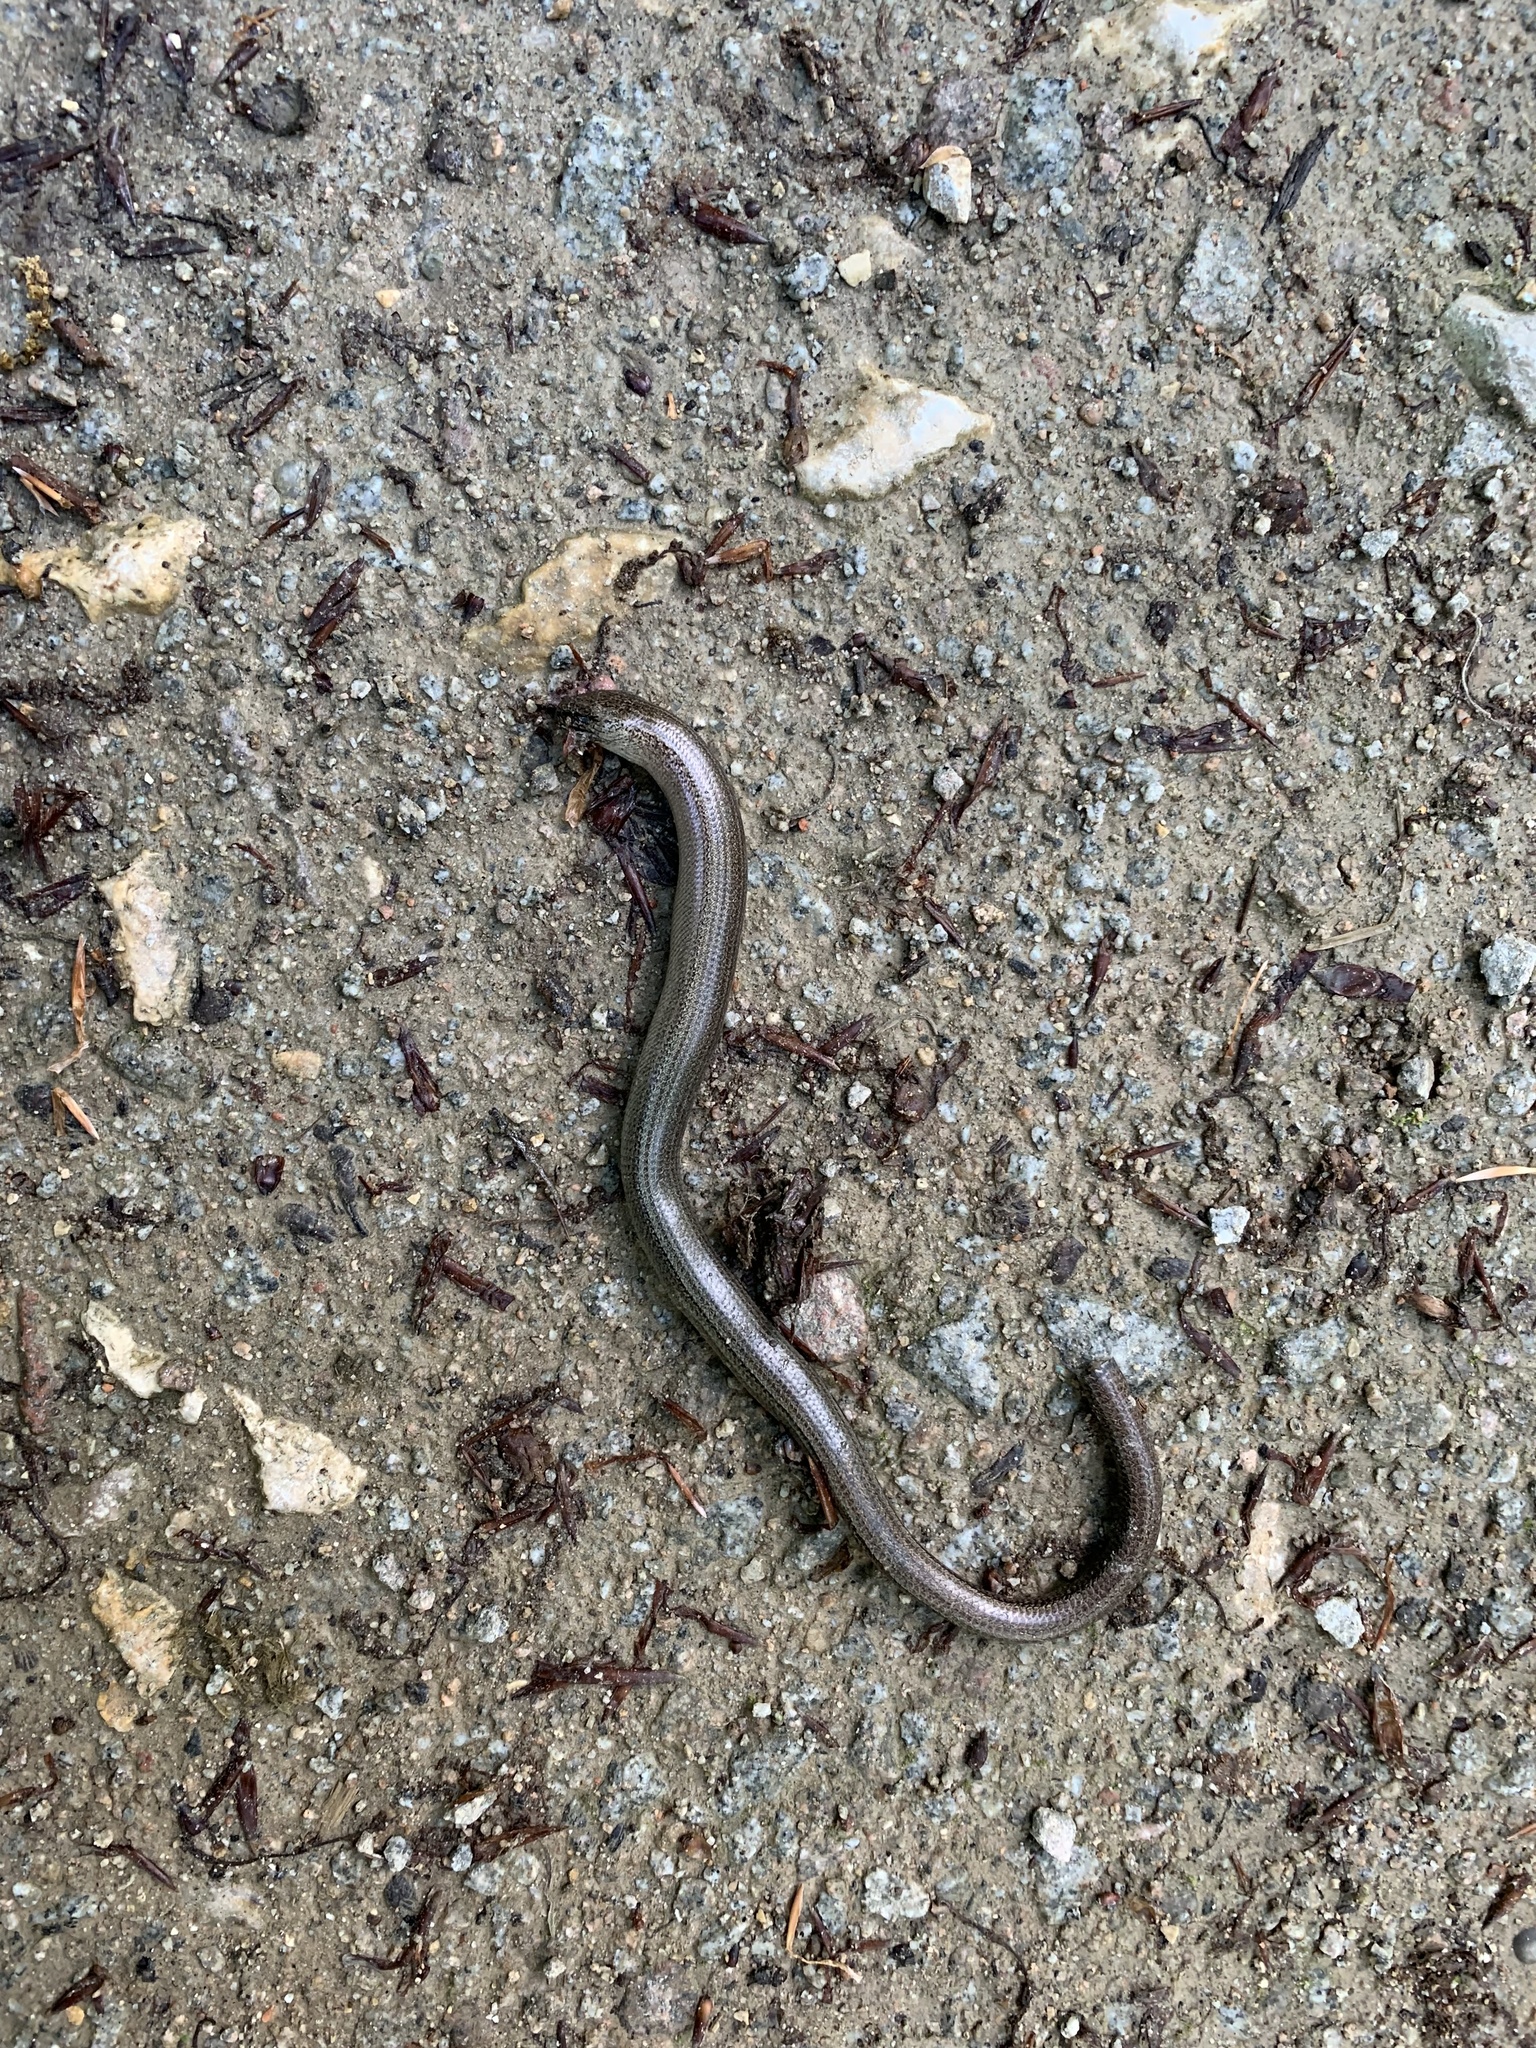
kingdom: Animalia
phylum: Chordata
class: Squamata
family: Anguidae
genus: Anguis
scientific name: Anguis fragilis
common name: Slow worm
